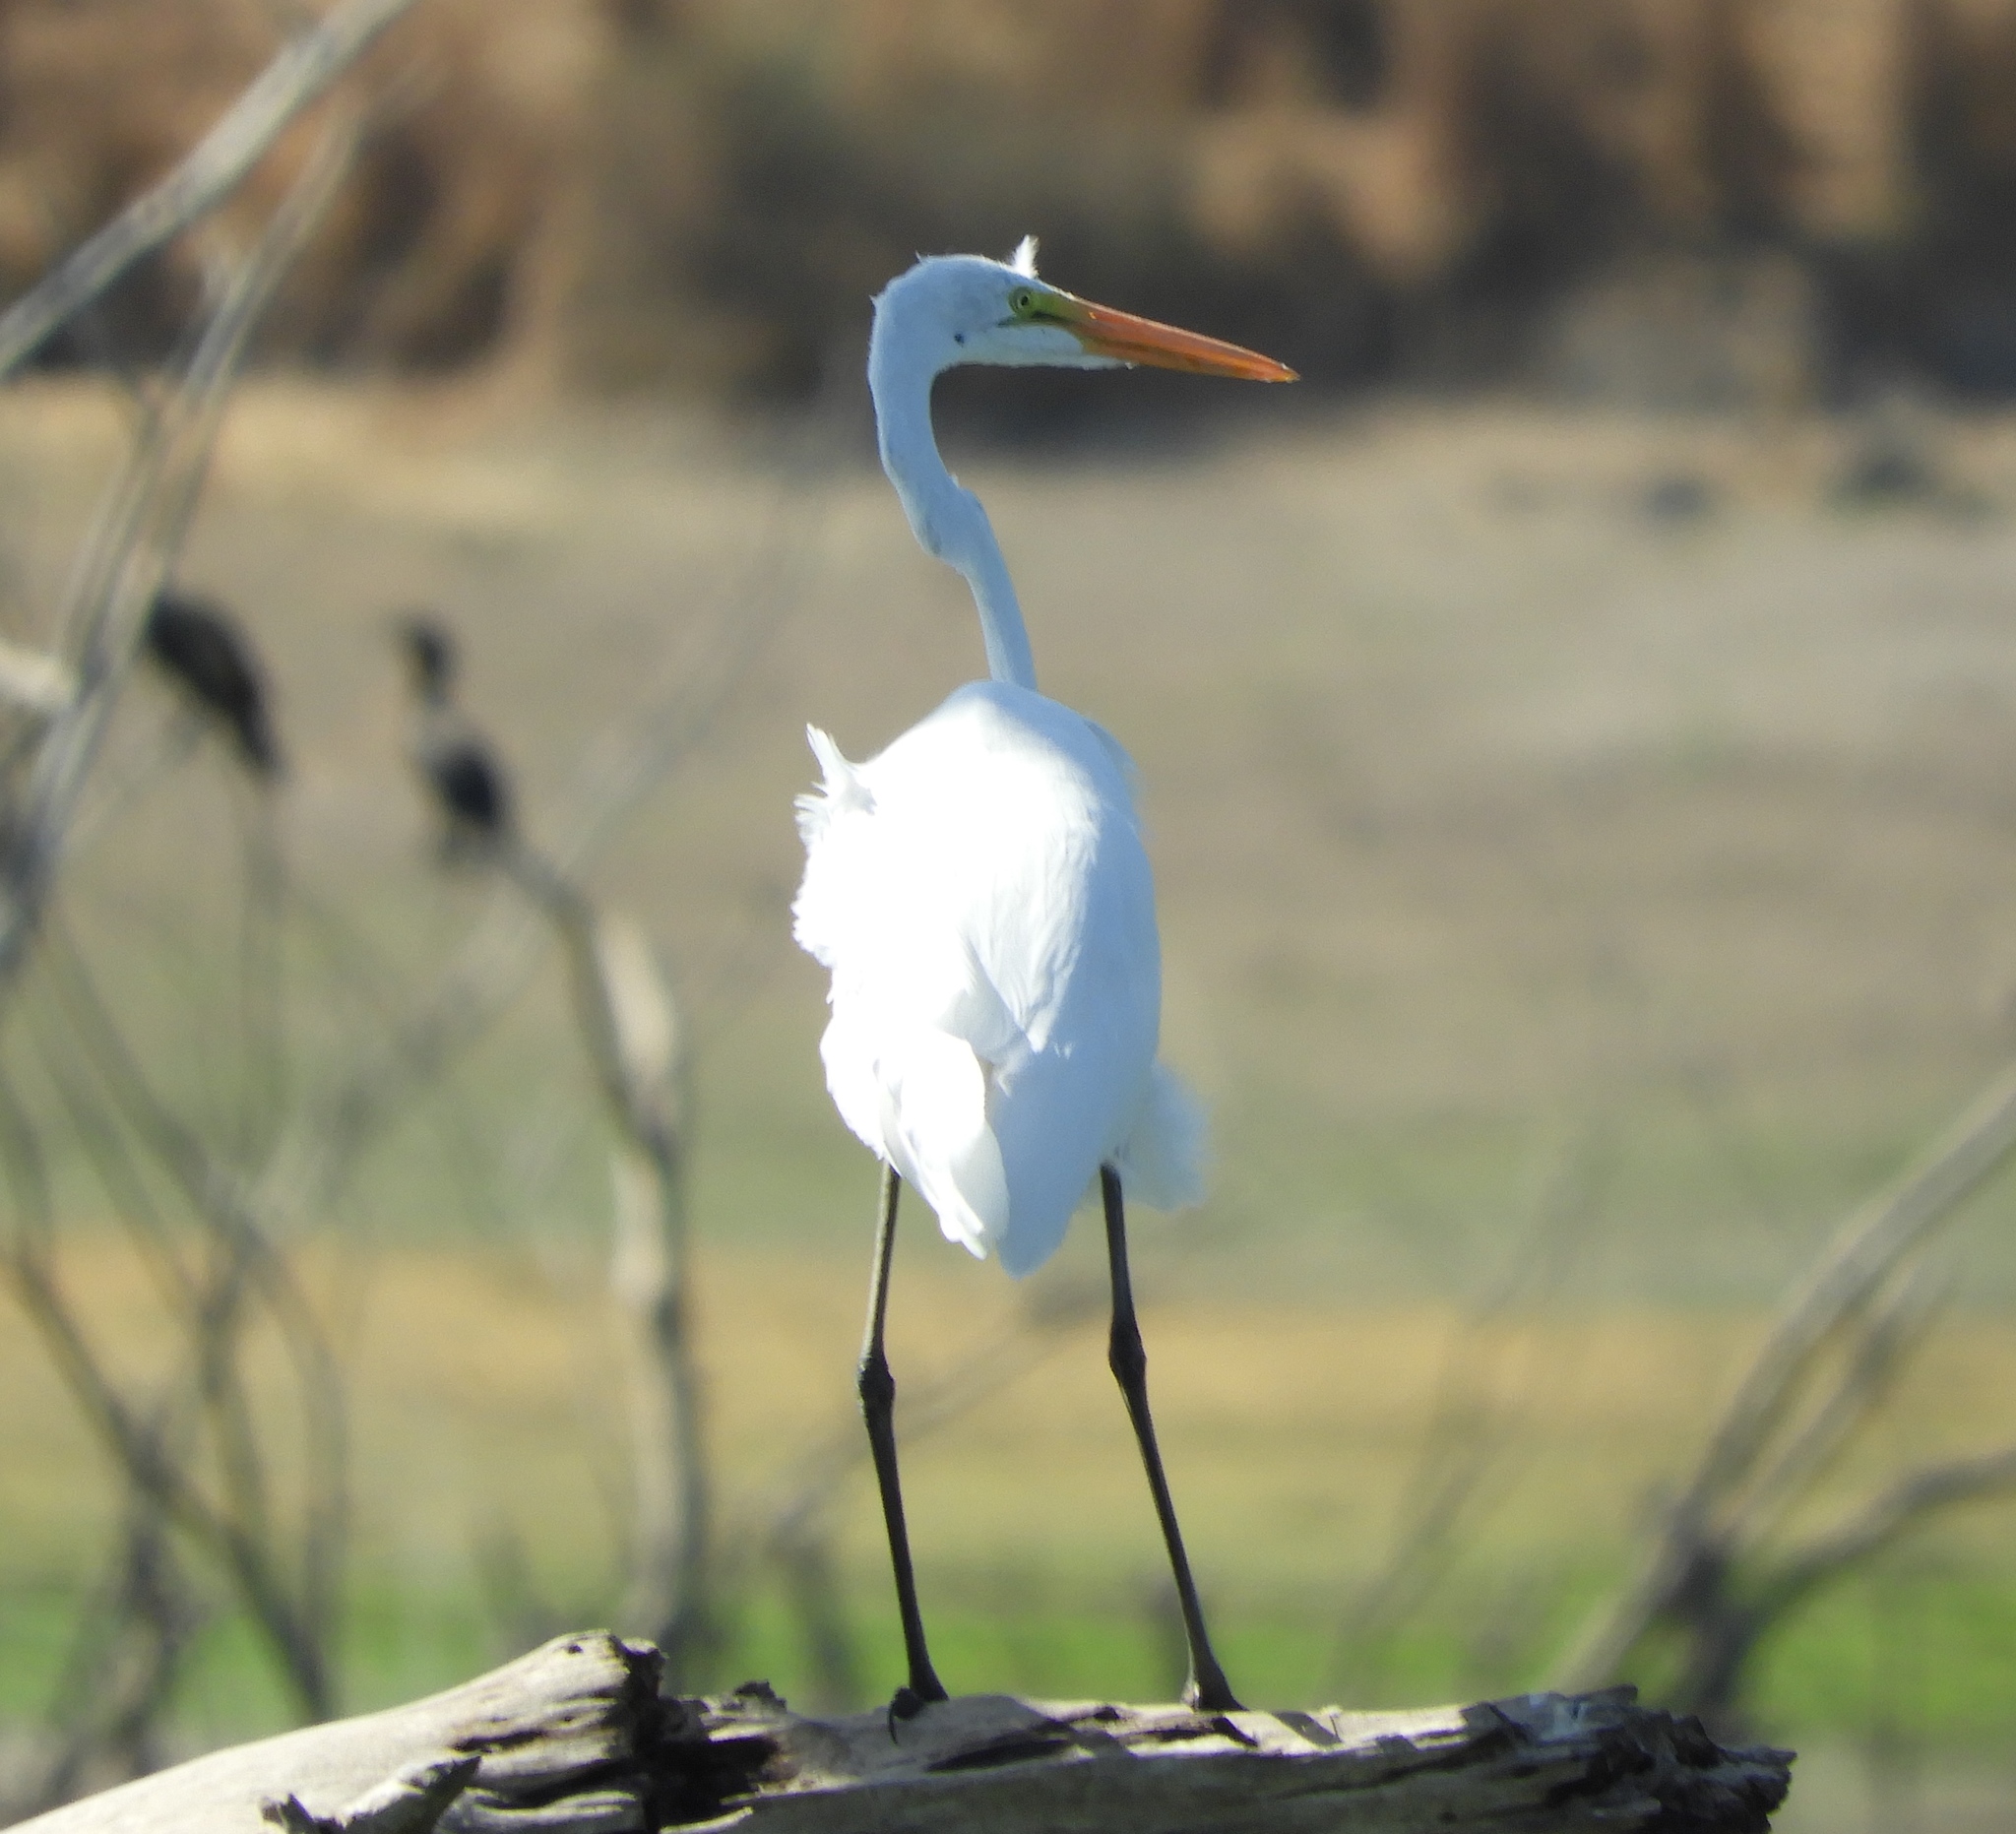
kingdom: Animalia
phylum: Chordata
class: Aves
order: Pelecaniformes
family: Ardeidae
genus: Ardea
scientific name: Ardea herodias
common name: Great blue heron
